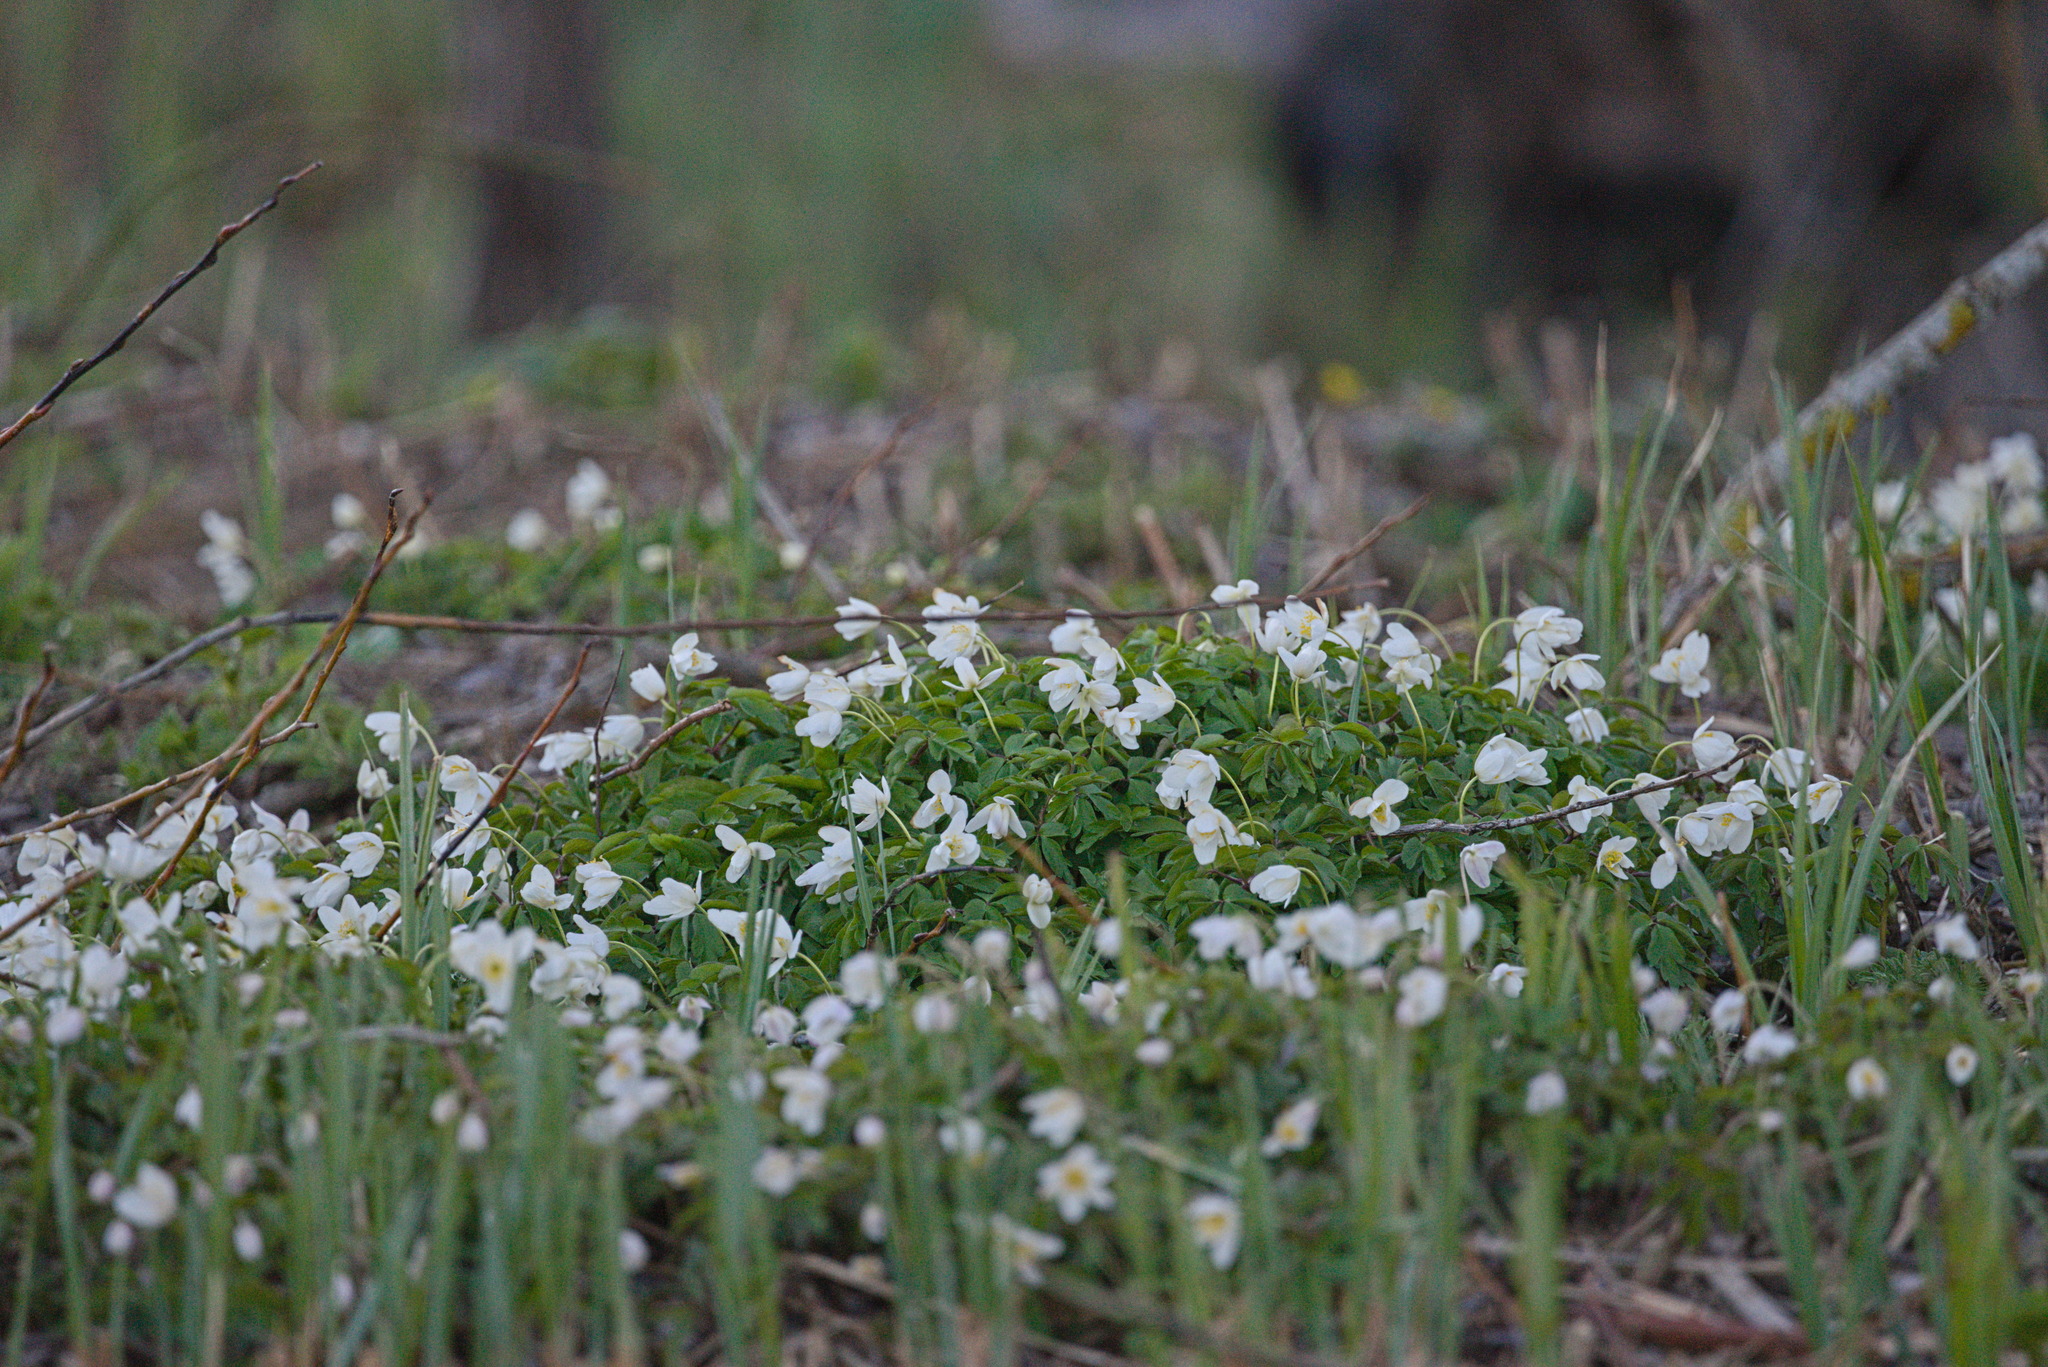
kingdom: Plantae
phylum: Tracheophyta
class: Magnoliopsida
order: Ranunculales
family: Ranunculaceae
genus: Anemone
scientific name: Anemone nemorosa
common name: Wood anemone
